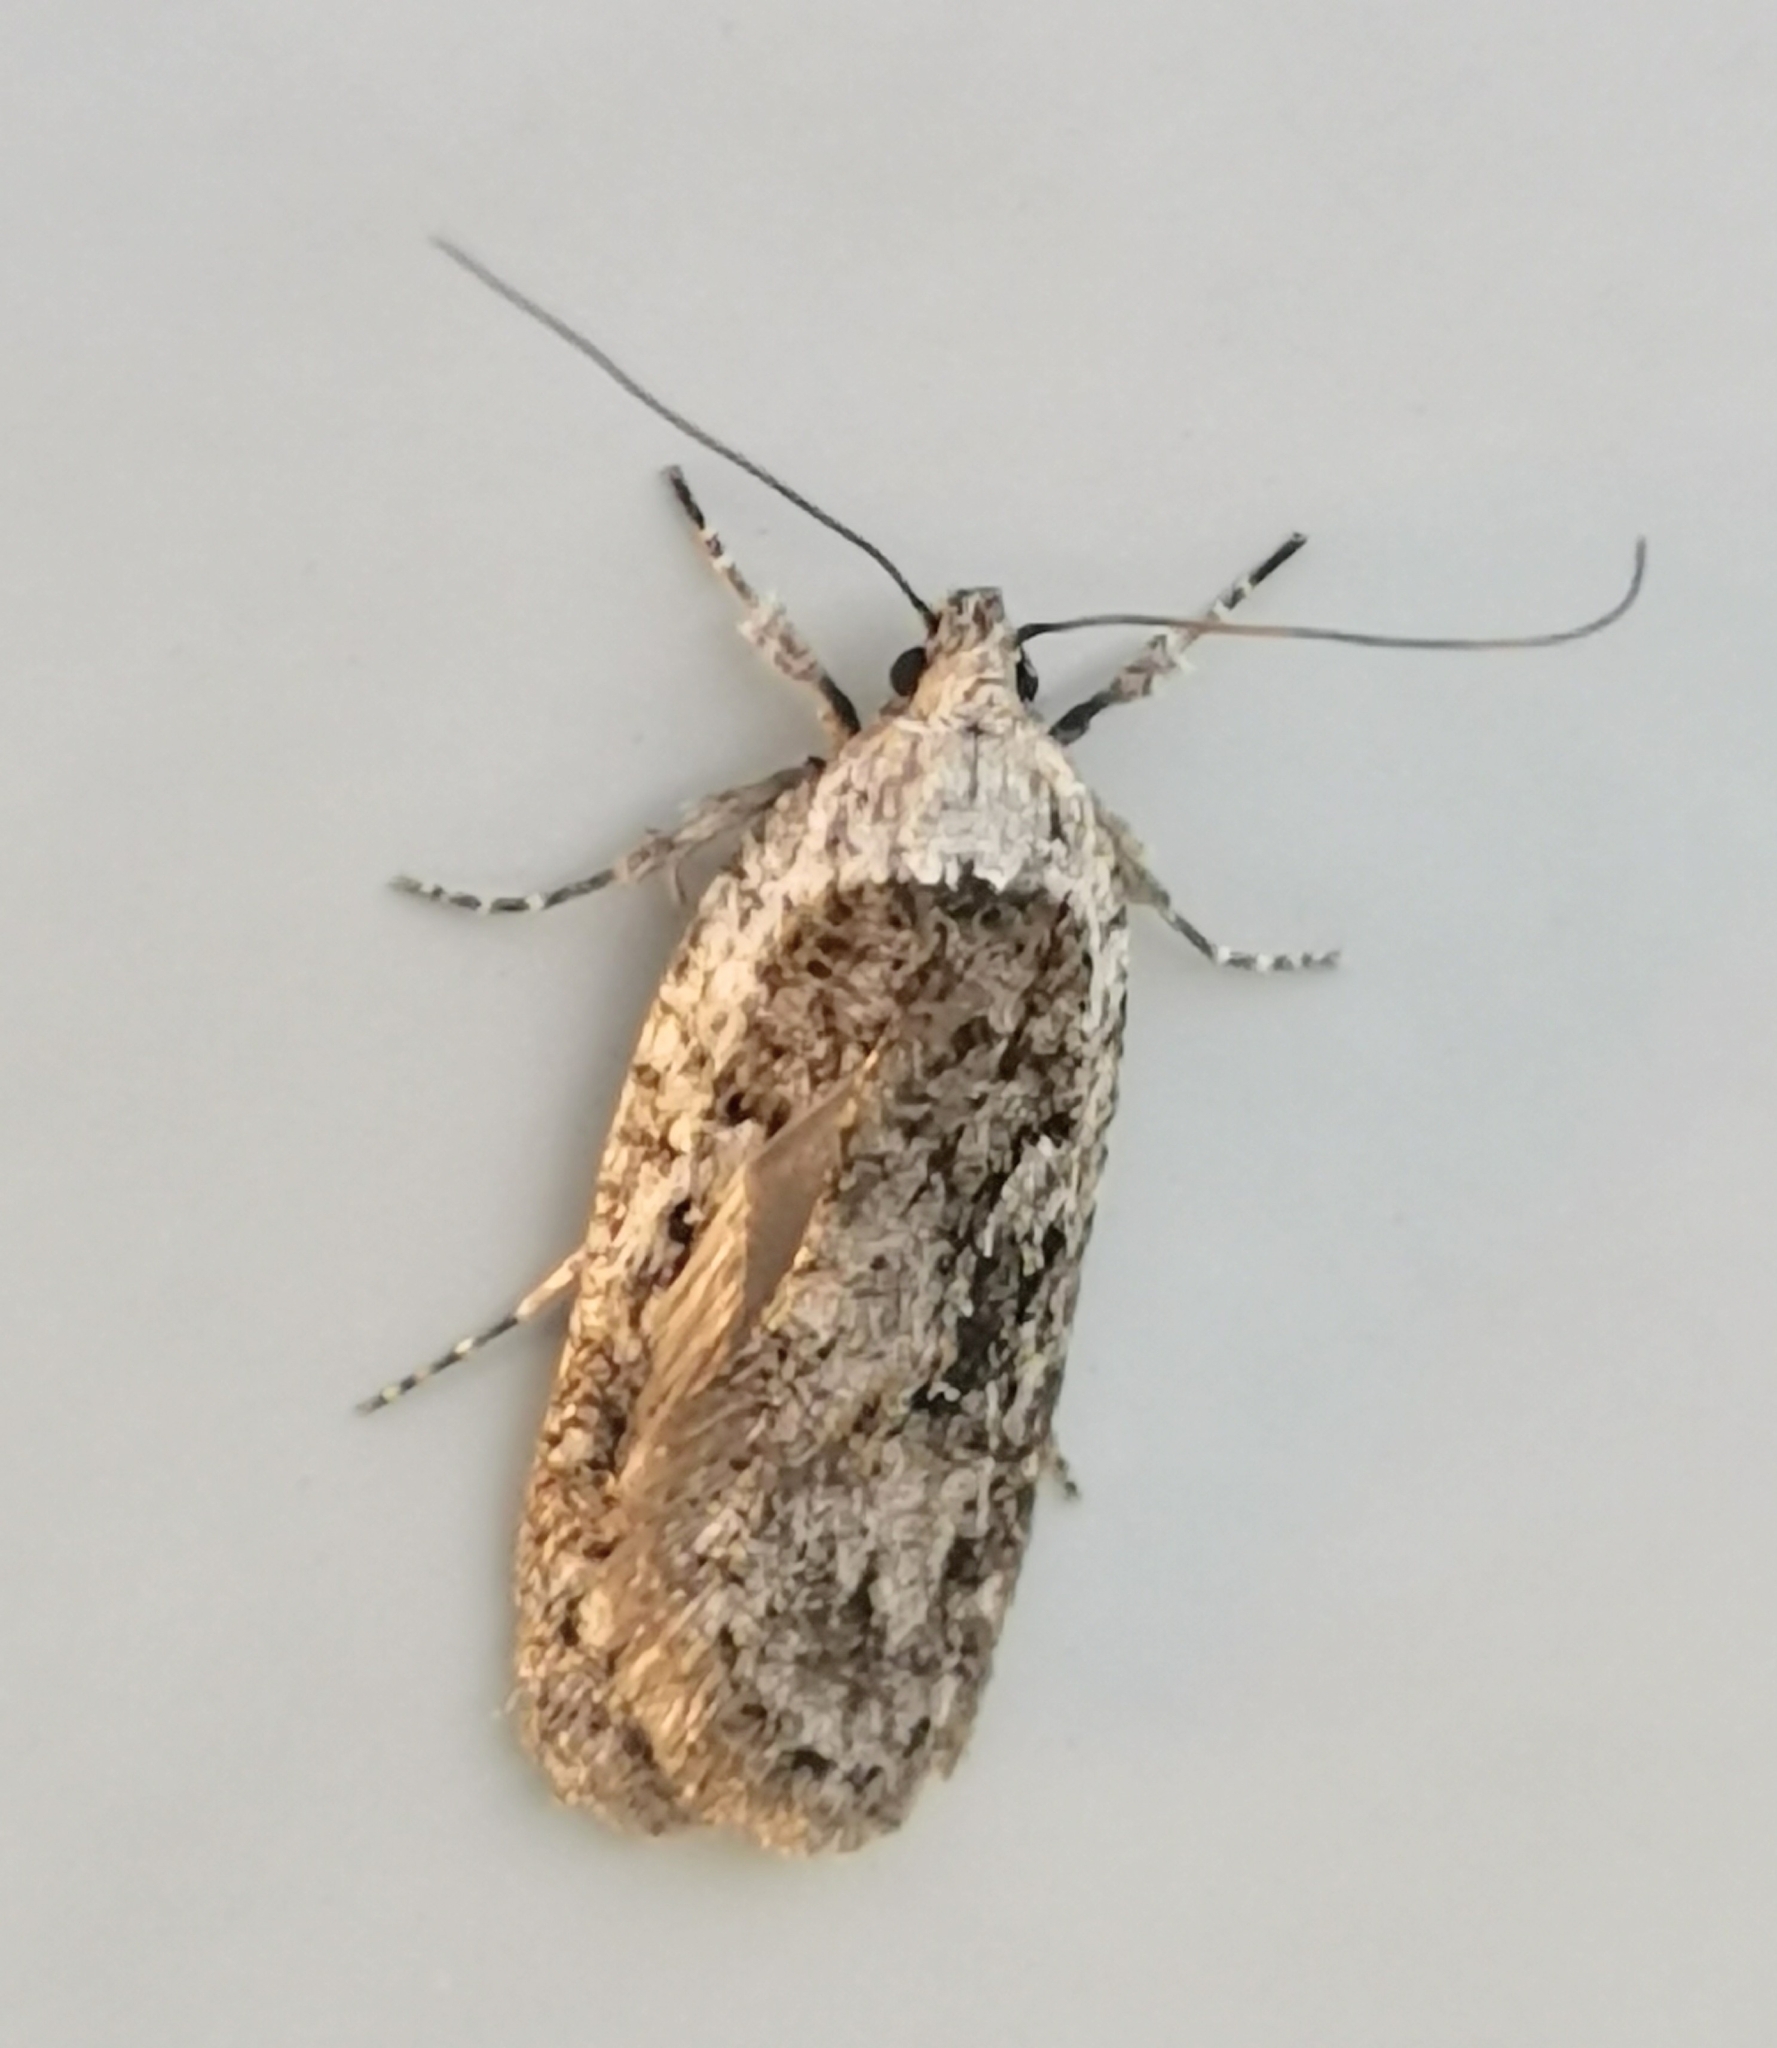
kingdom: Animalia
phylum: Arthropoda
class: Insecta
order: Lepidoptera
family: Depressariidae
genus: Exaeretia
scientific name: Exaeretia ciniflonella
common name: Scotch flat-body
